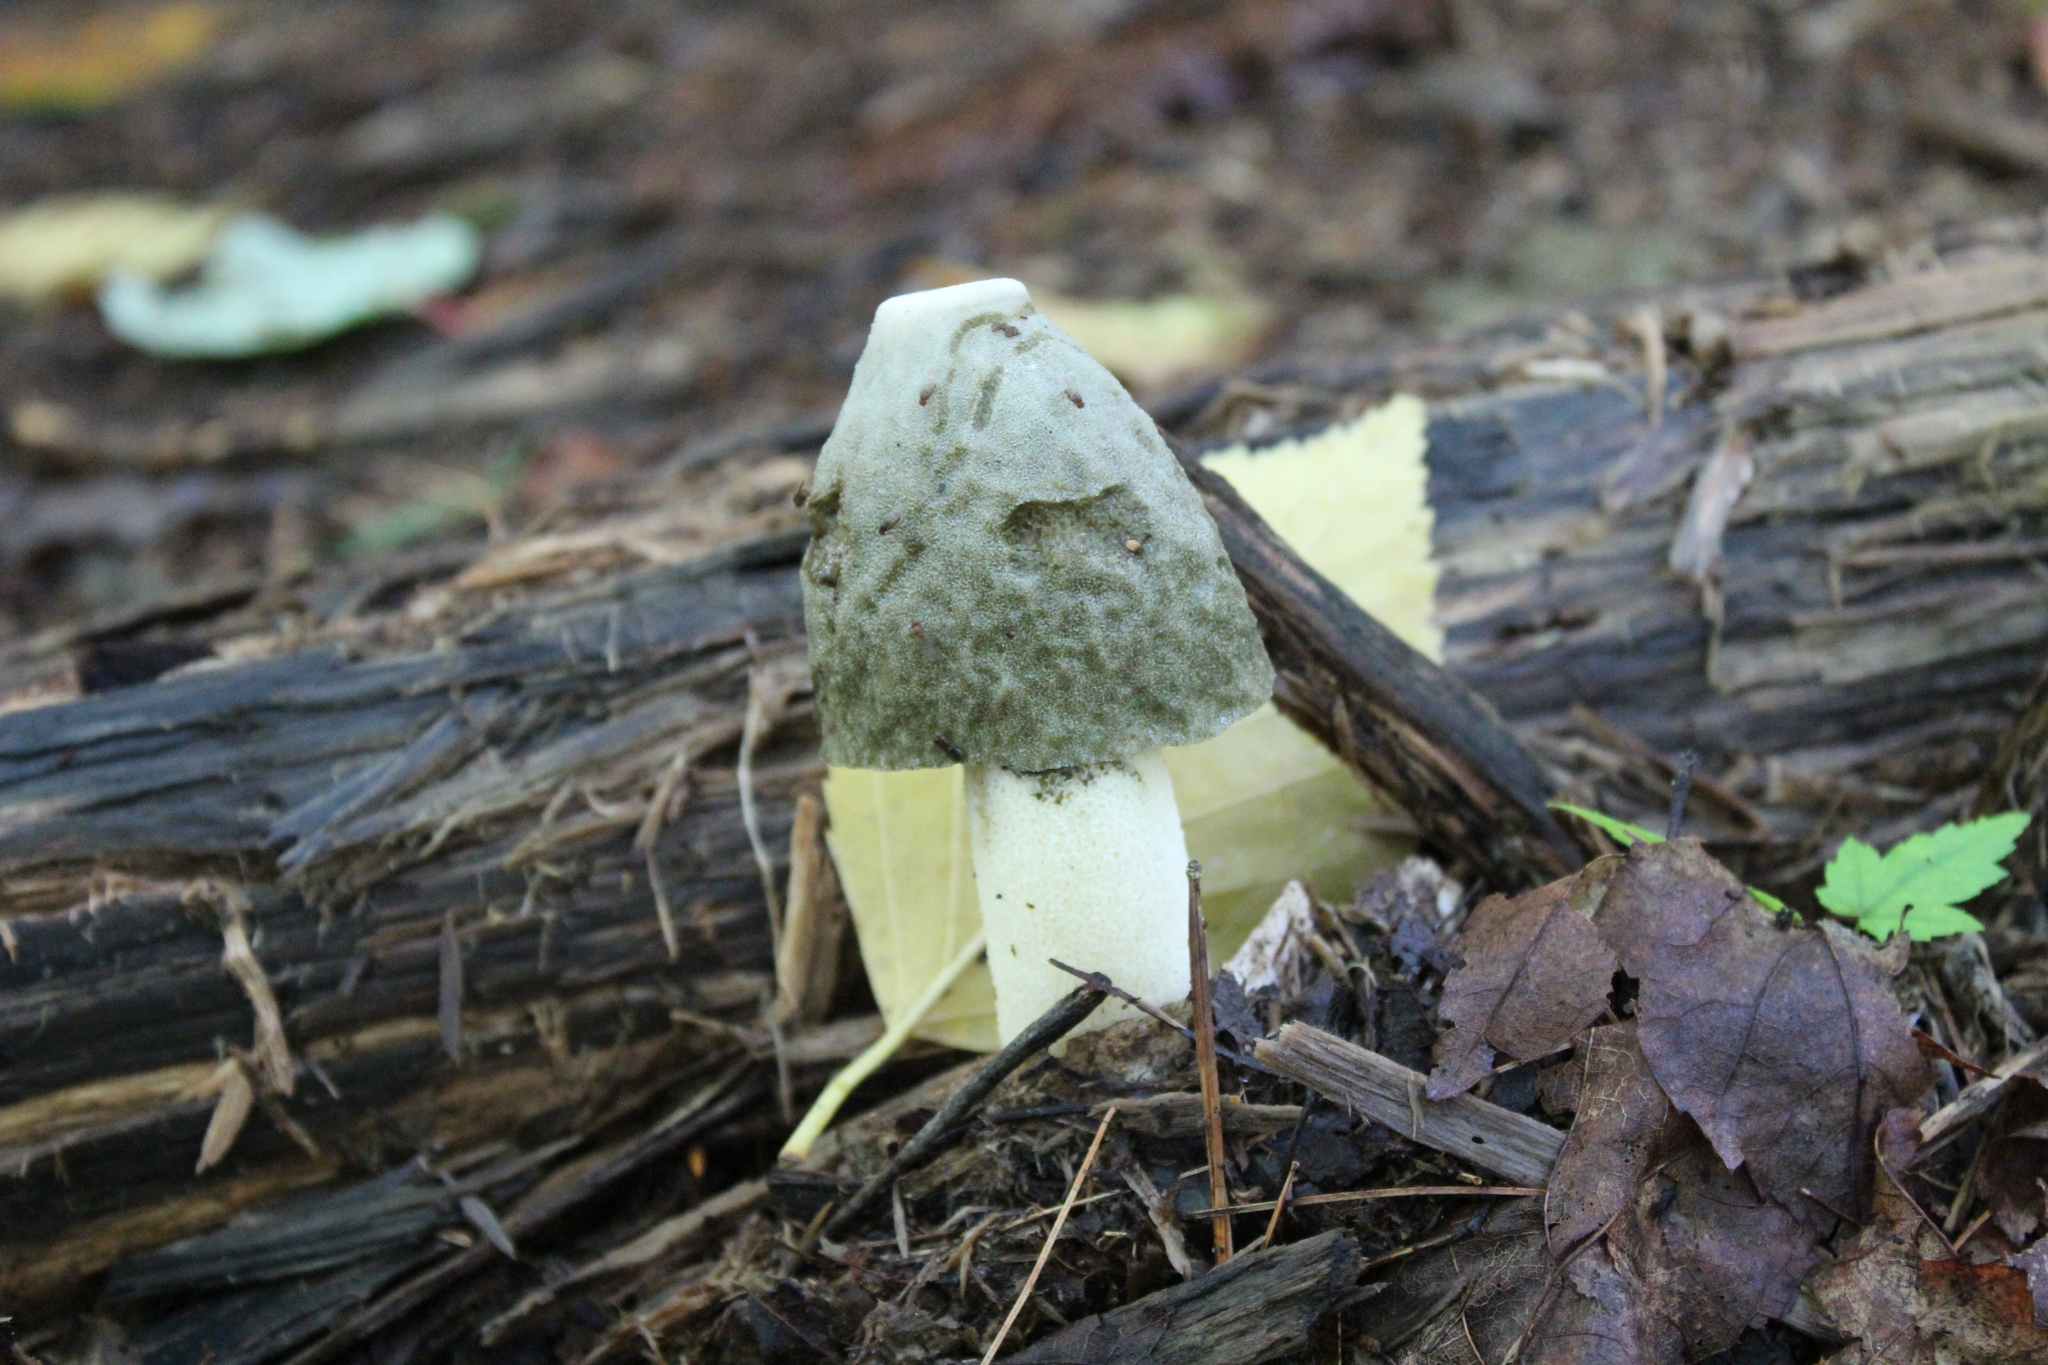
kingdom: Fungi
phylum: Basidiomycota
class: Agaricomycetes
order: Phallales
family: Phallaceae
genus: Phallus
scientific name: Phallus ravenelii
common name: Ravenel's stinkhorn
